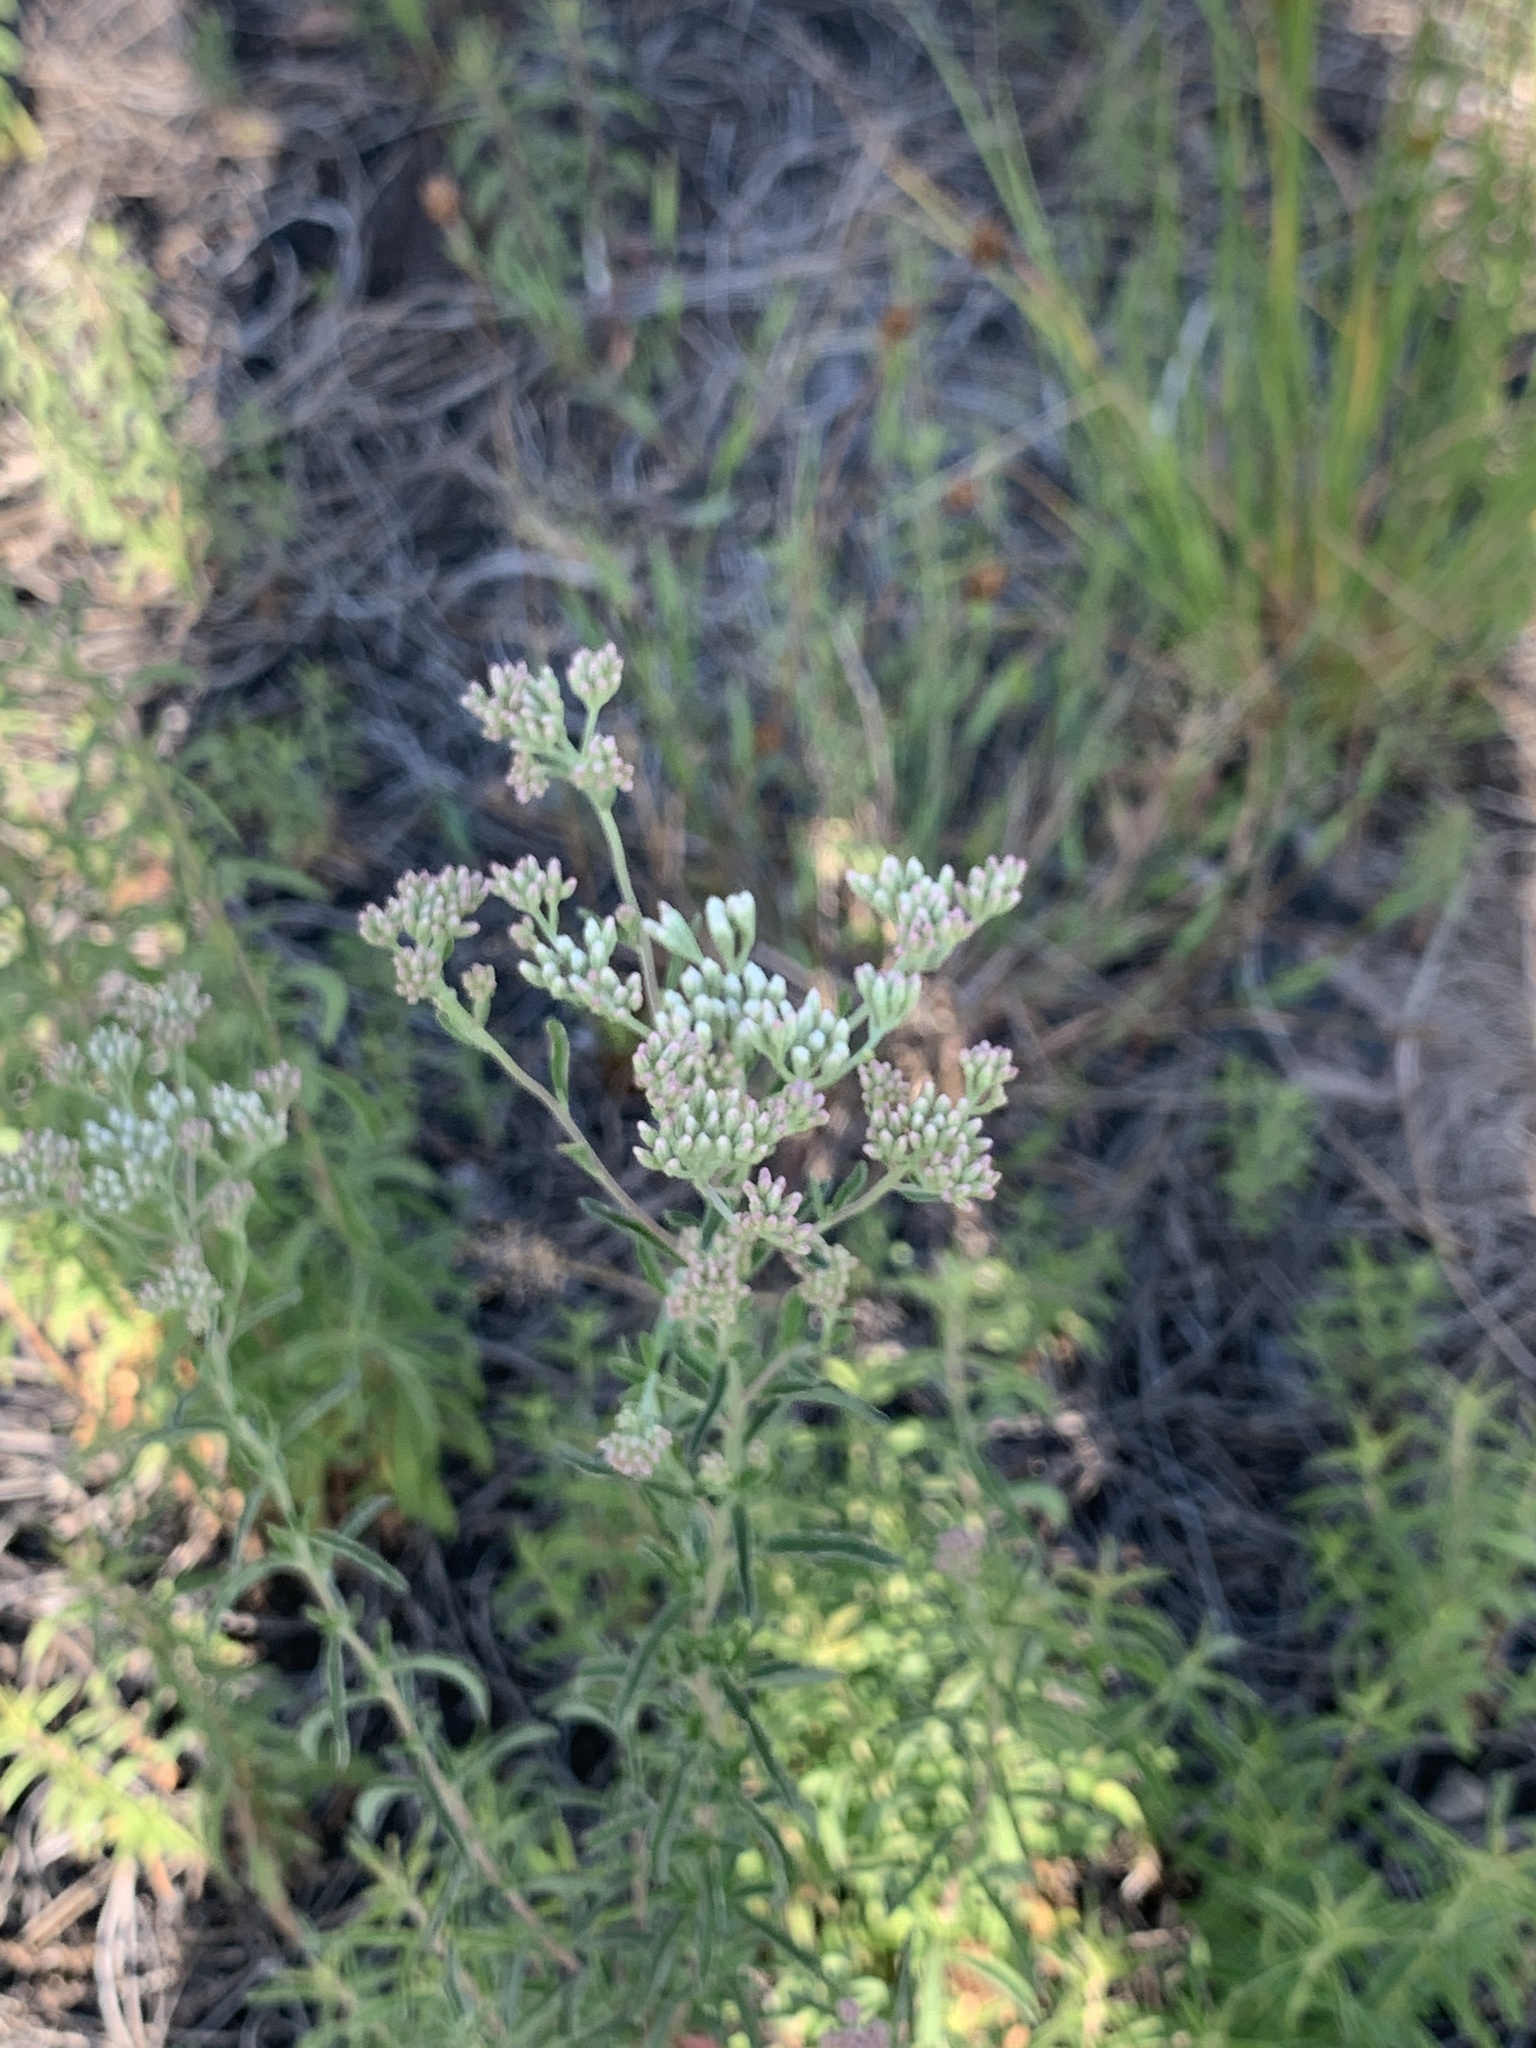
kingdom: Plantae
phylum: Tracheophyta
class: Magnoliopsida
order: Asterales
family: Asteraceae
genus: Eupatorium
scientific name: Eupatorium mohrii
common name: Mohr's thoroughwort
